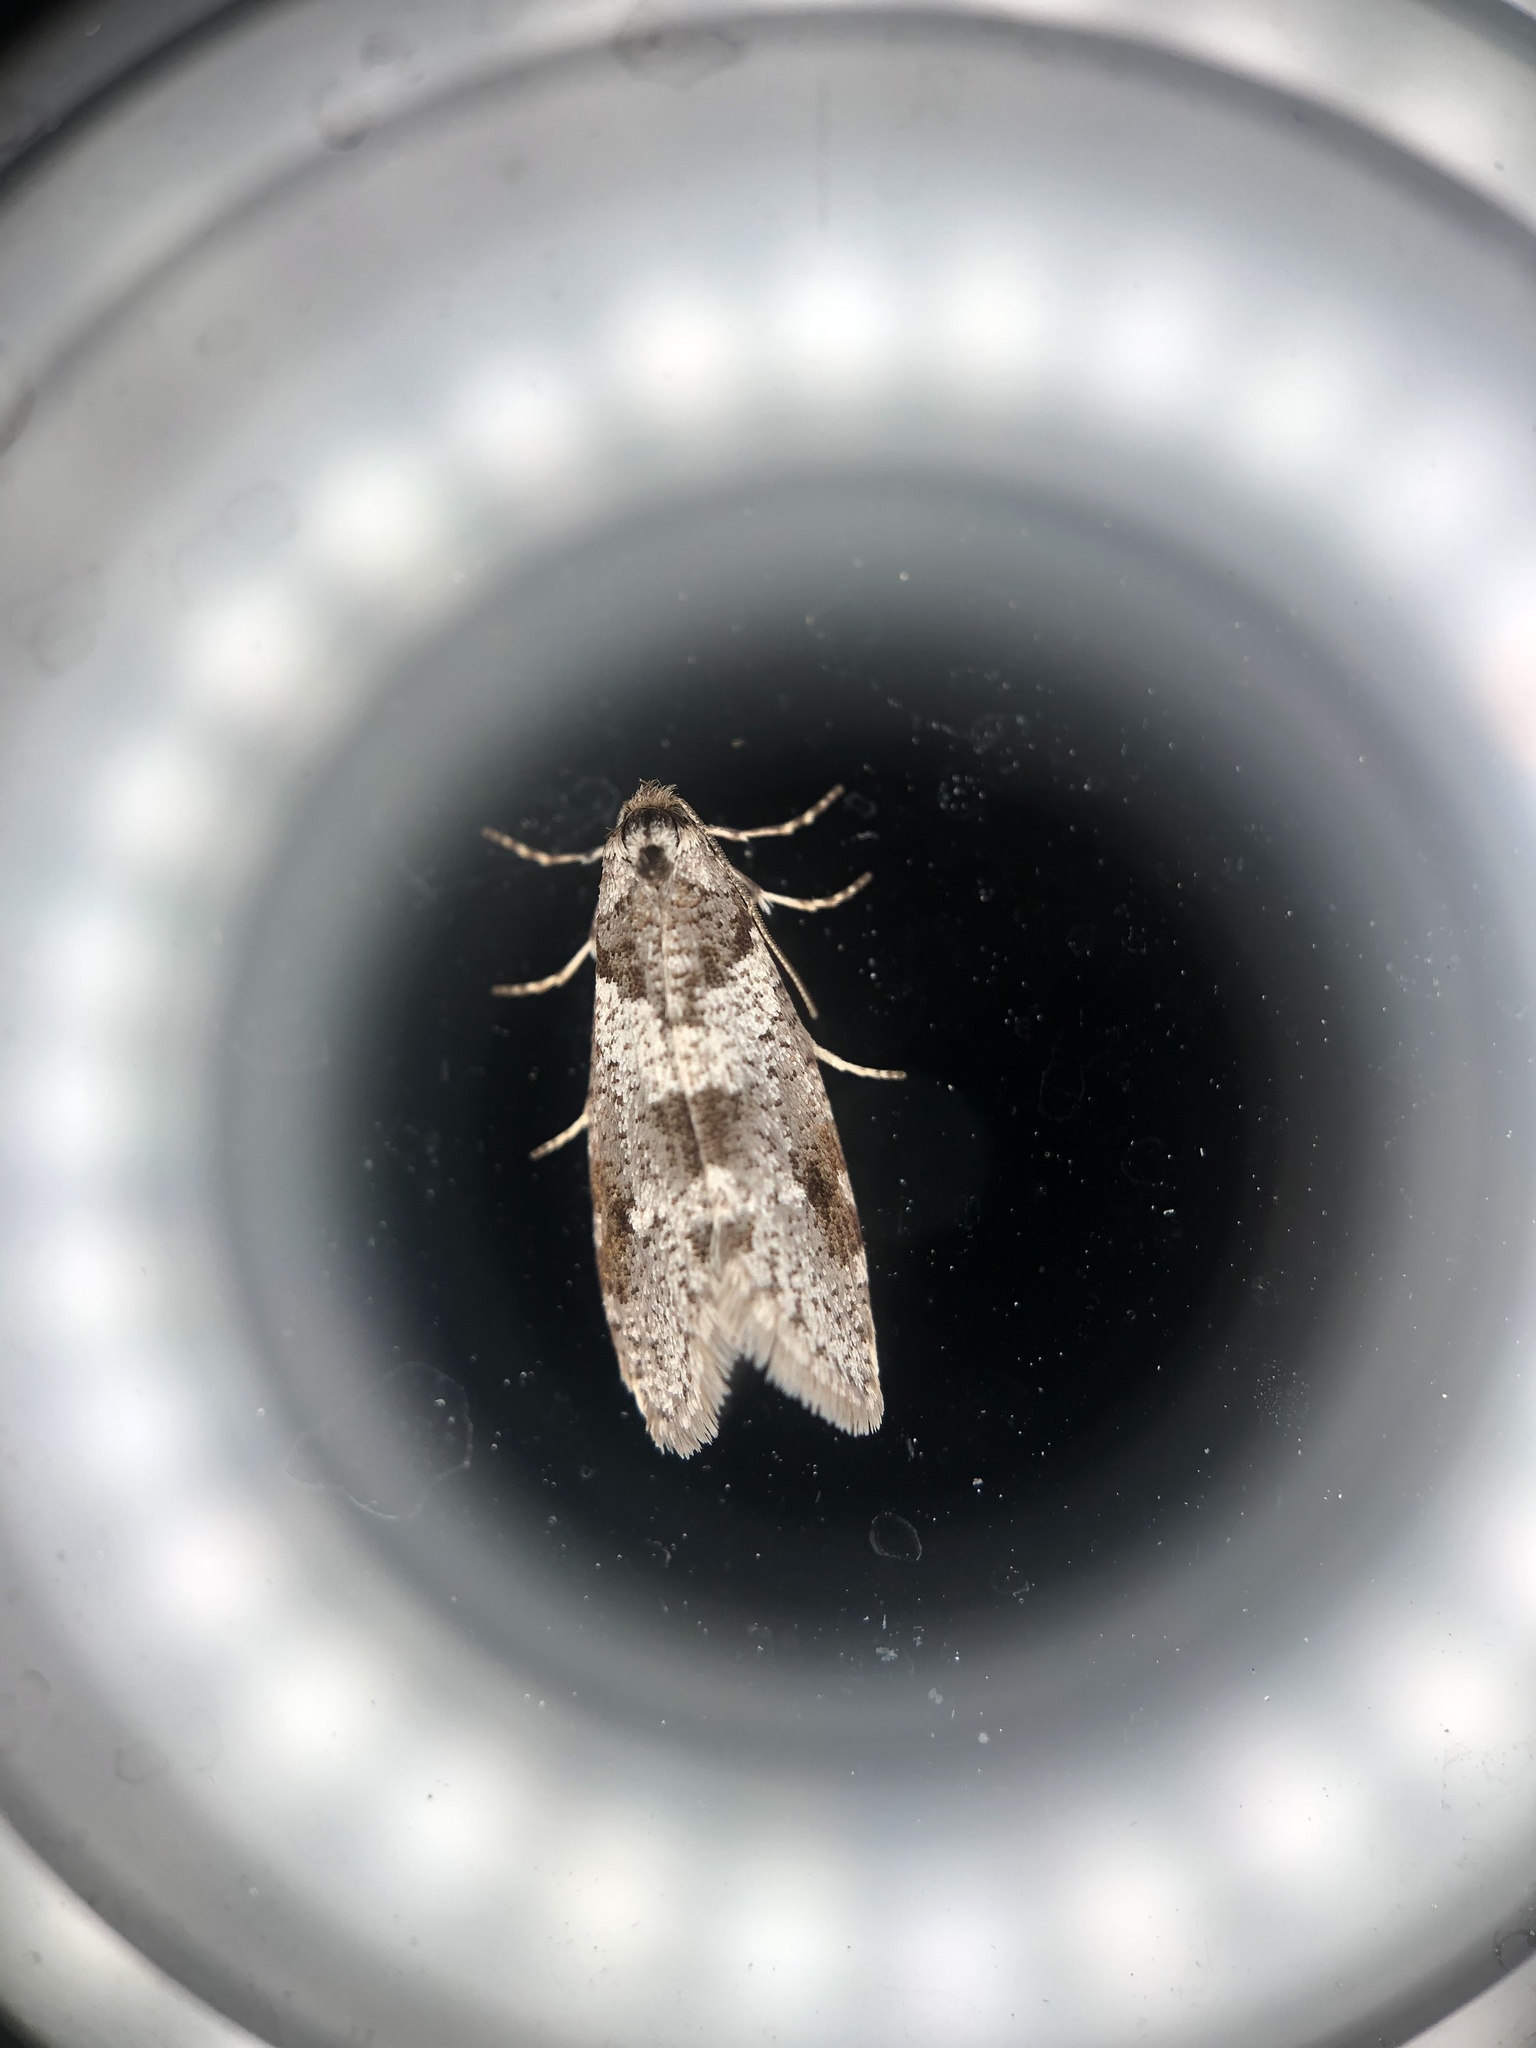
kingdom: Animalia
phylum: Arthropoda
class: Insecta
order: Lepidoptera
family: Psychidae
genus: Lepidoscia
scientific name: Lepidoscia heliochares
